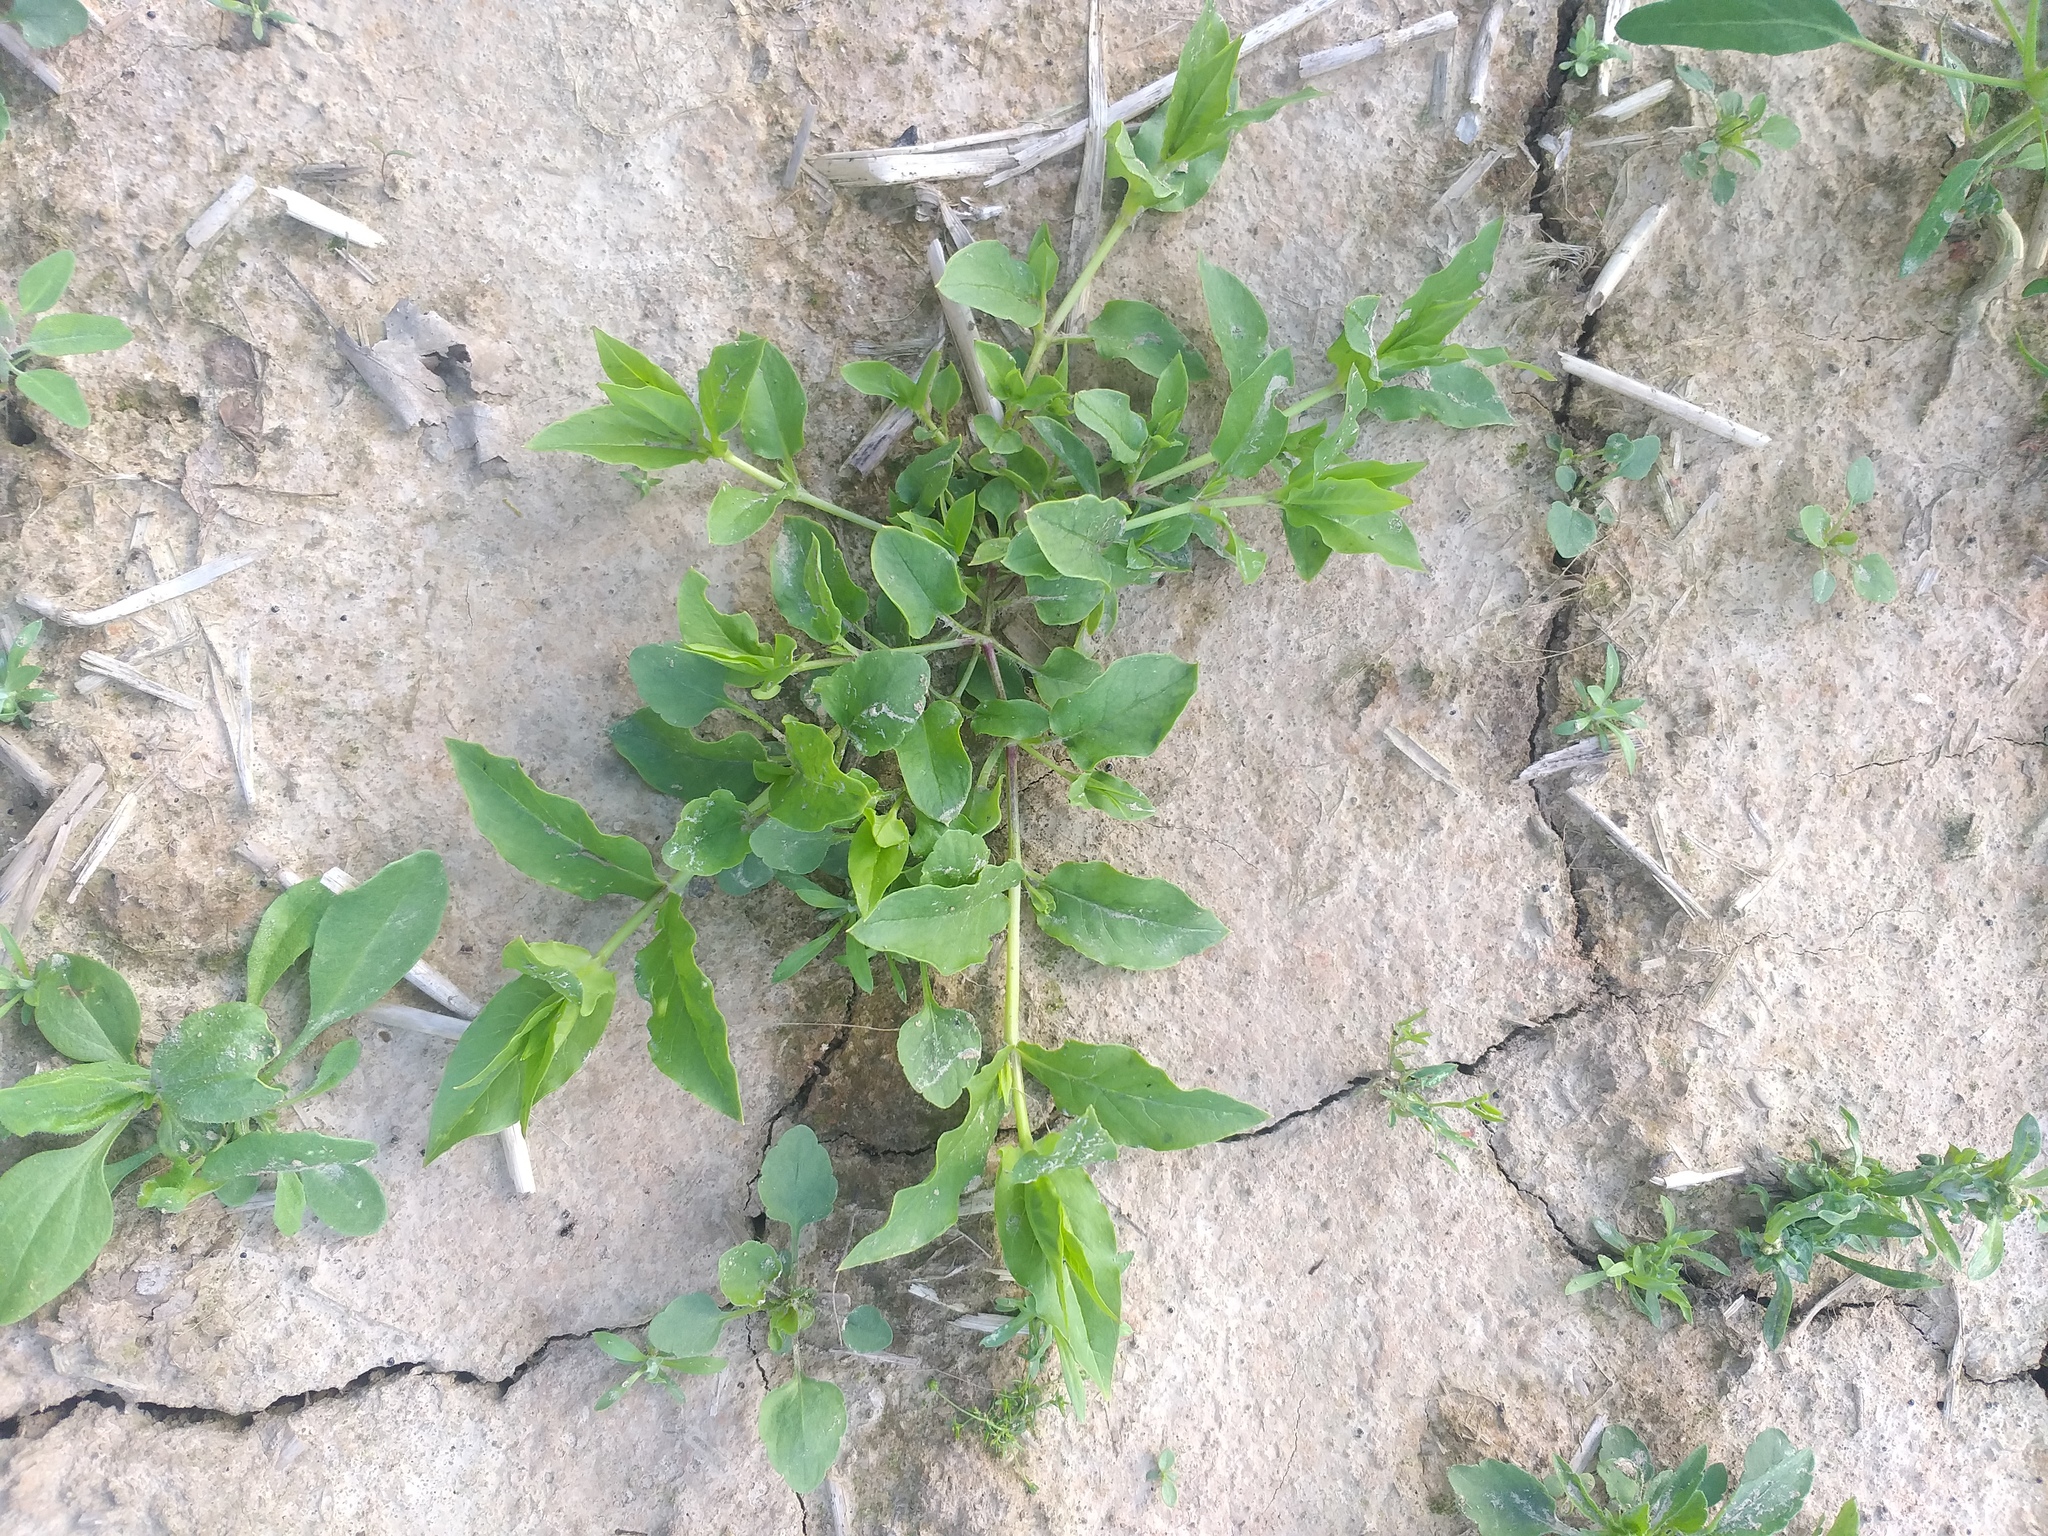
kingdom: Plantae
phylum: Tracheophyta
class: Magnoliopsida
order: Caryophyllales
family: Caryophyllaceae
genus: Stellaria
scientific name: Stellaria aquatica
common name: Water chickweed
